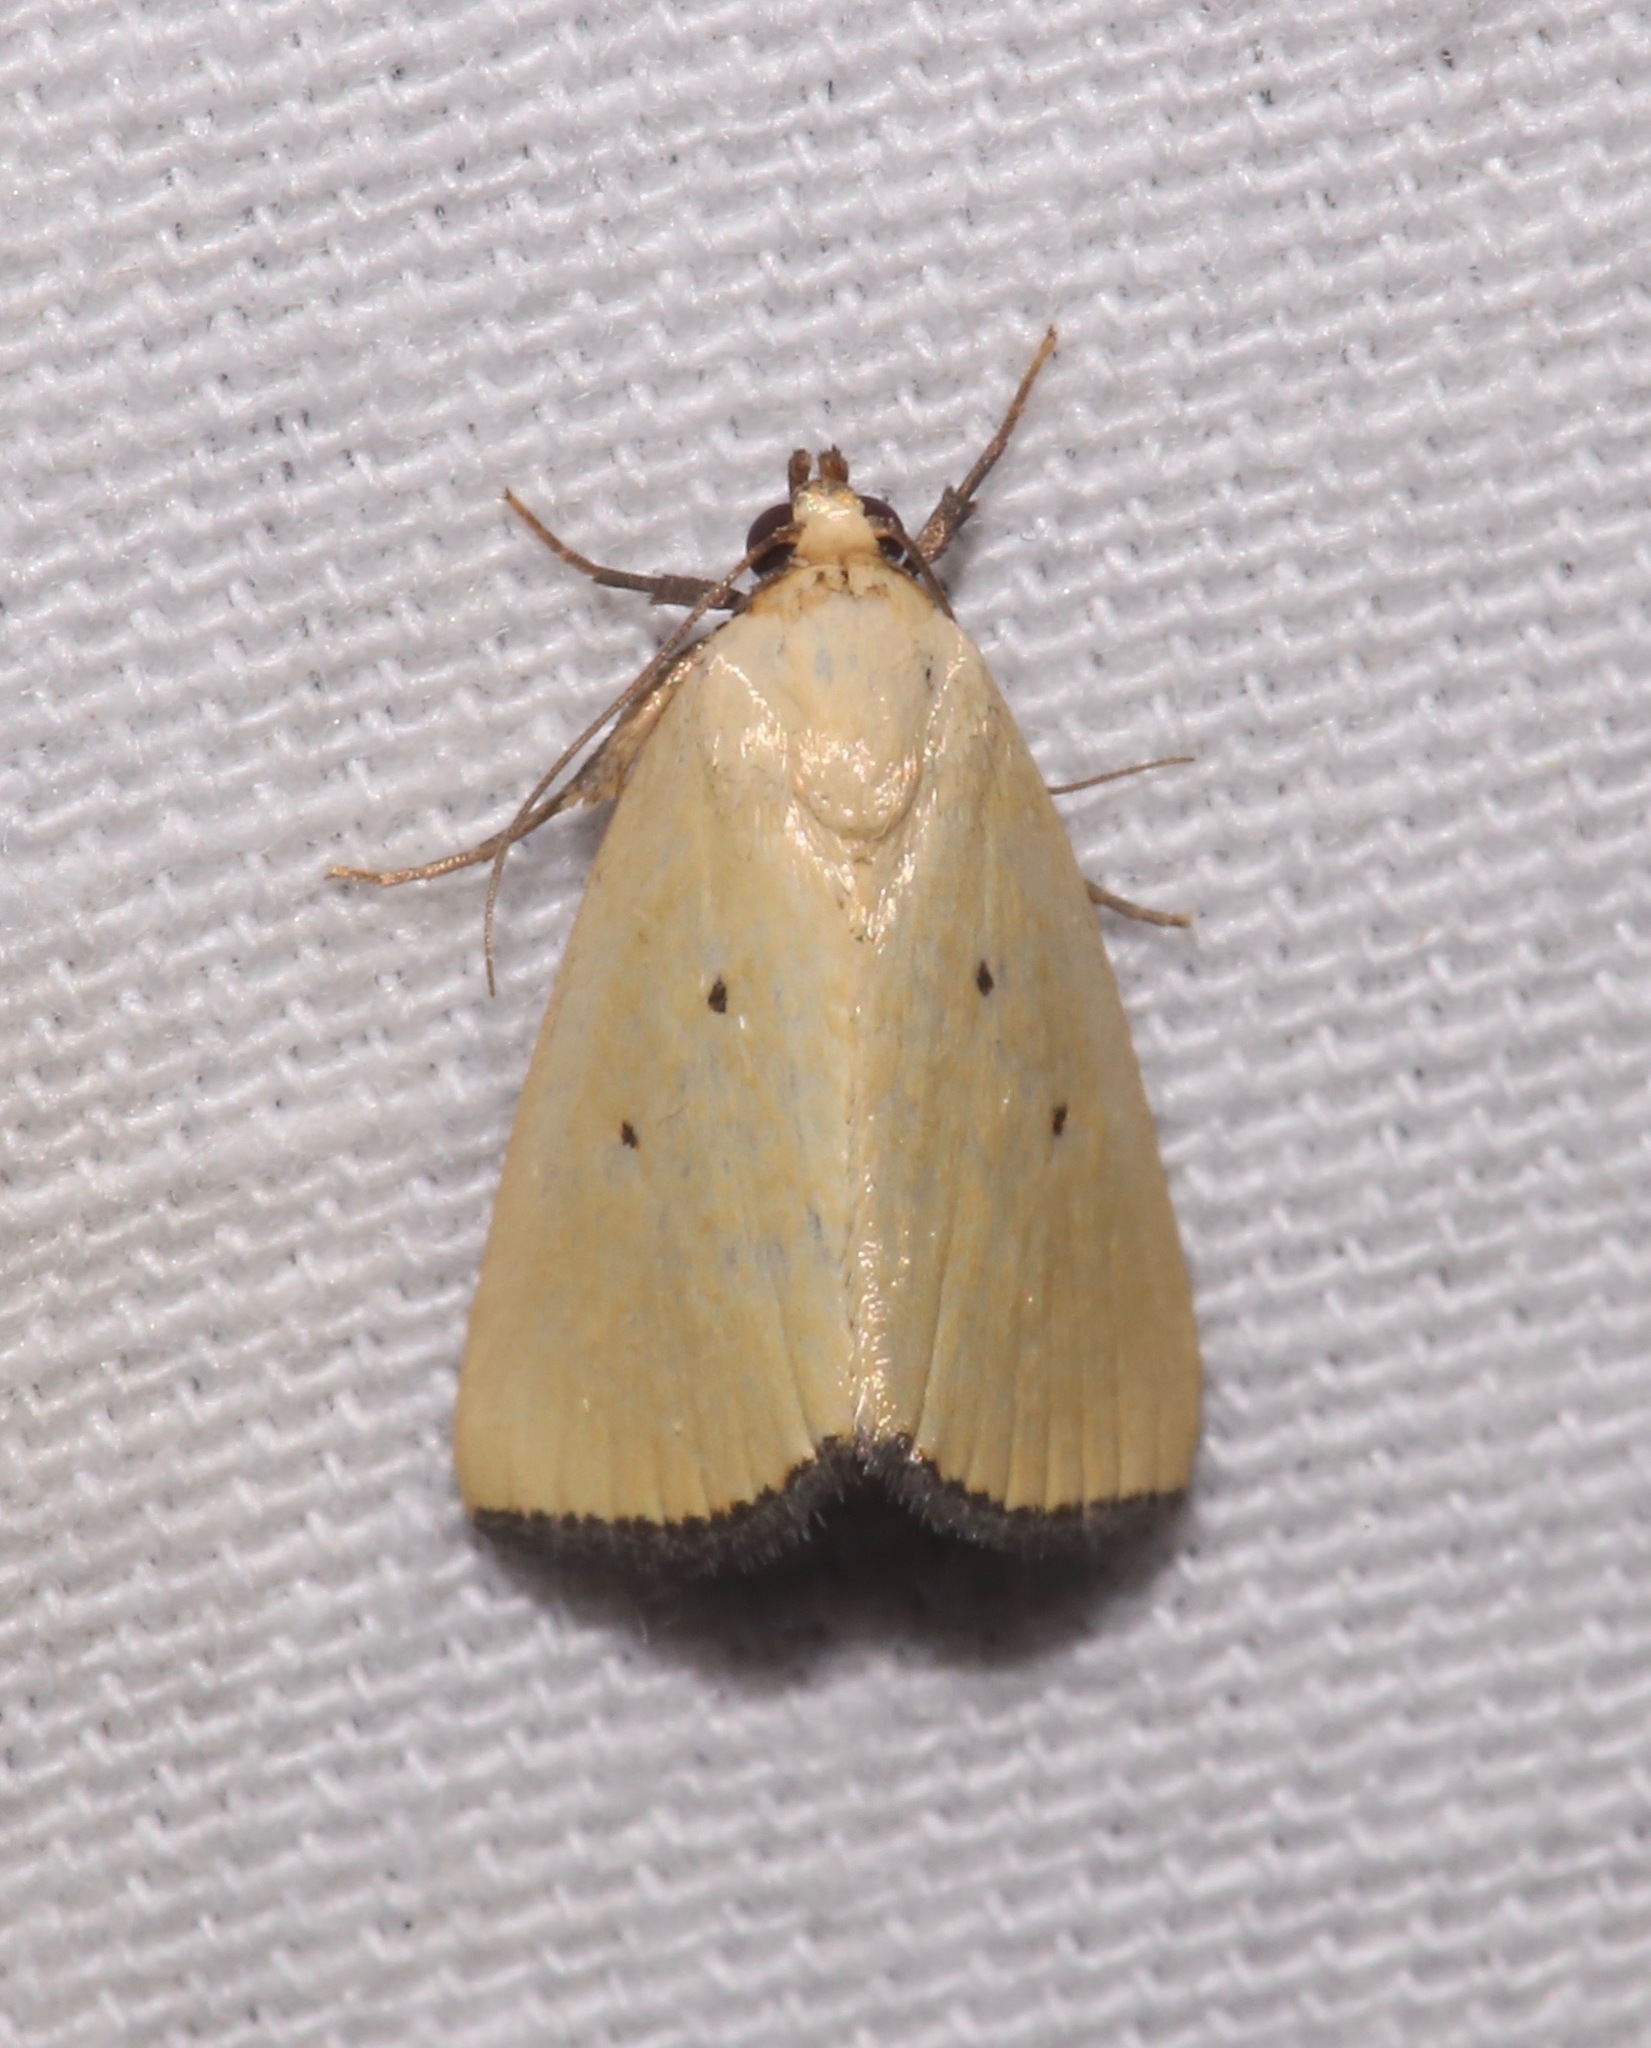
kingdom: Animalia
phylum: Arthropoda
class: Insecta
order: Lepidoptera
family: Noctuidae
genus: Marimatha
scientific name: Marimatha nigrofimbria
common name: Black-bordered lemon moth
